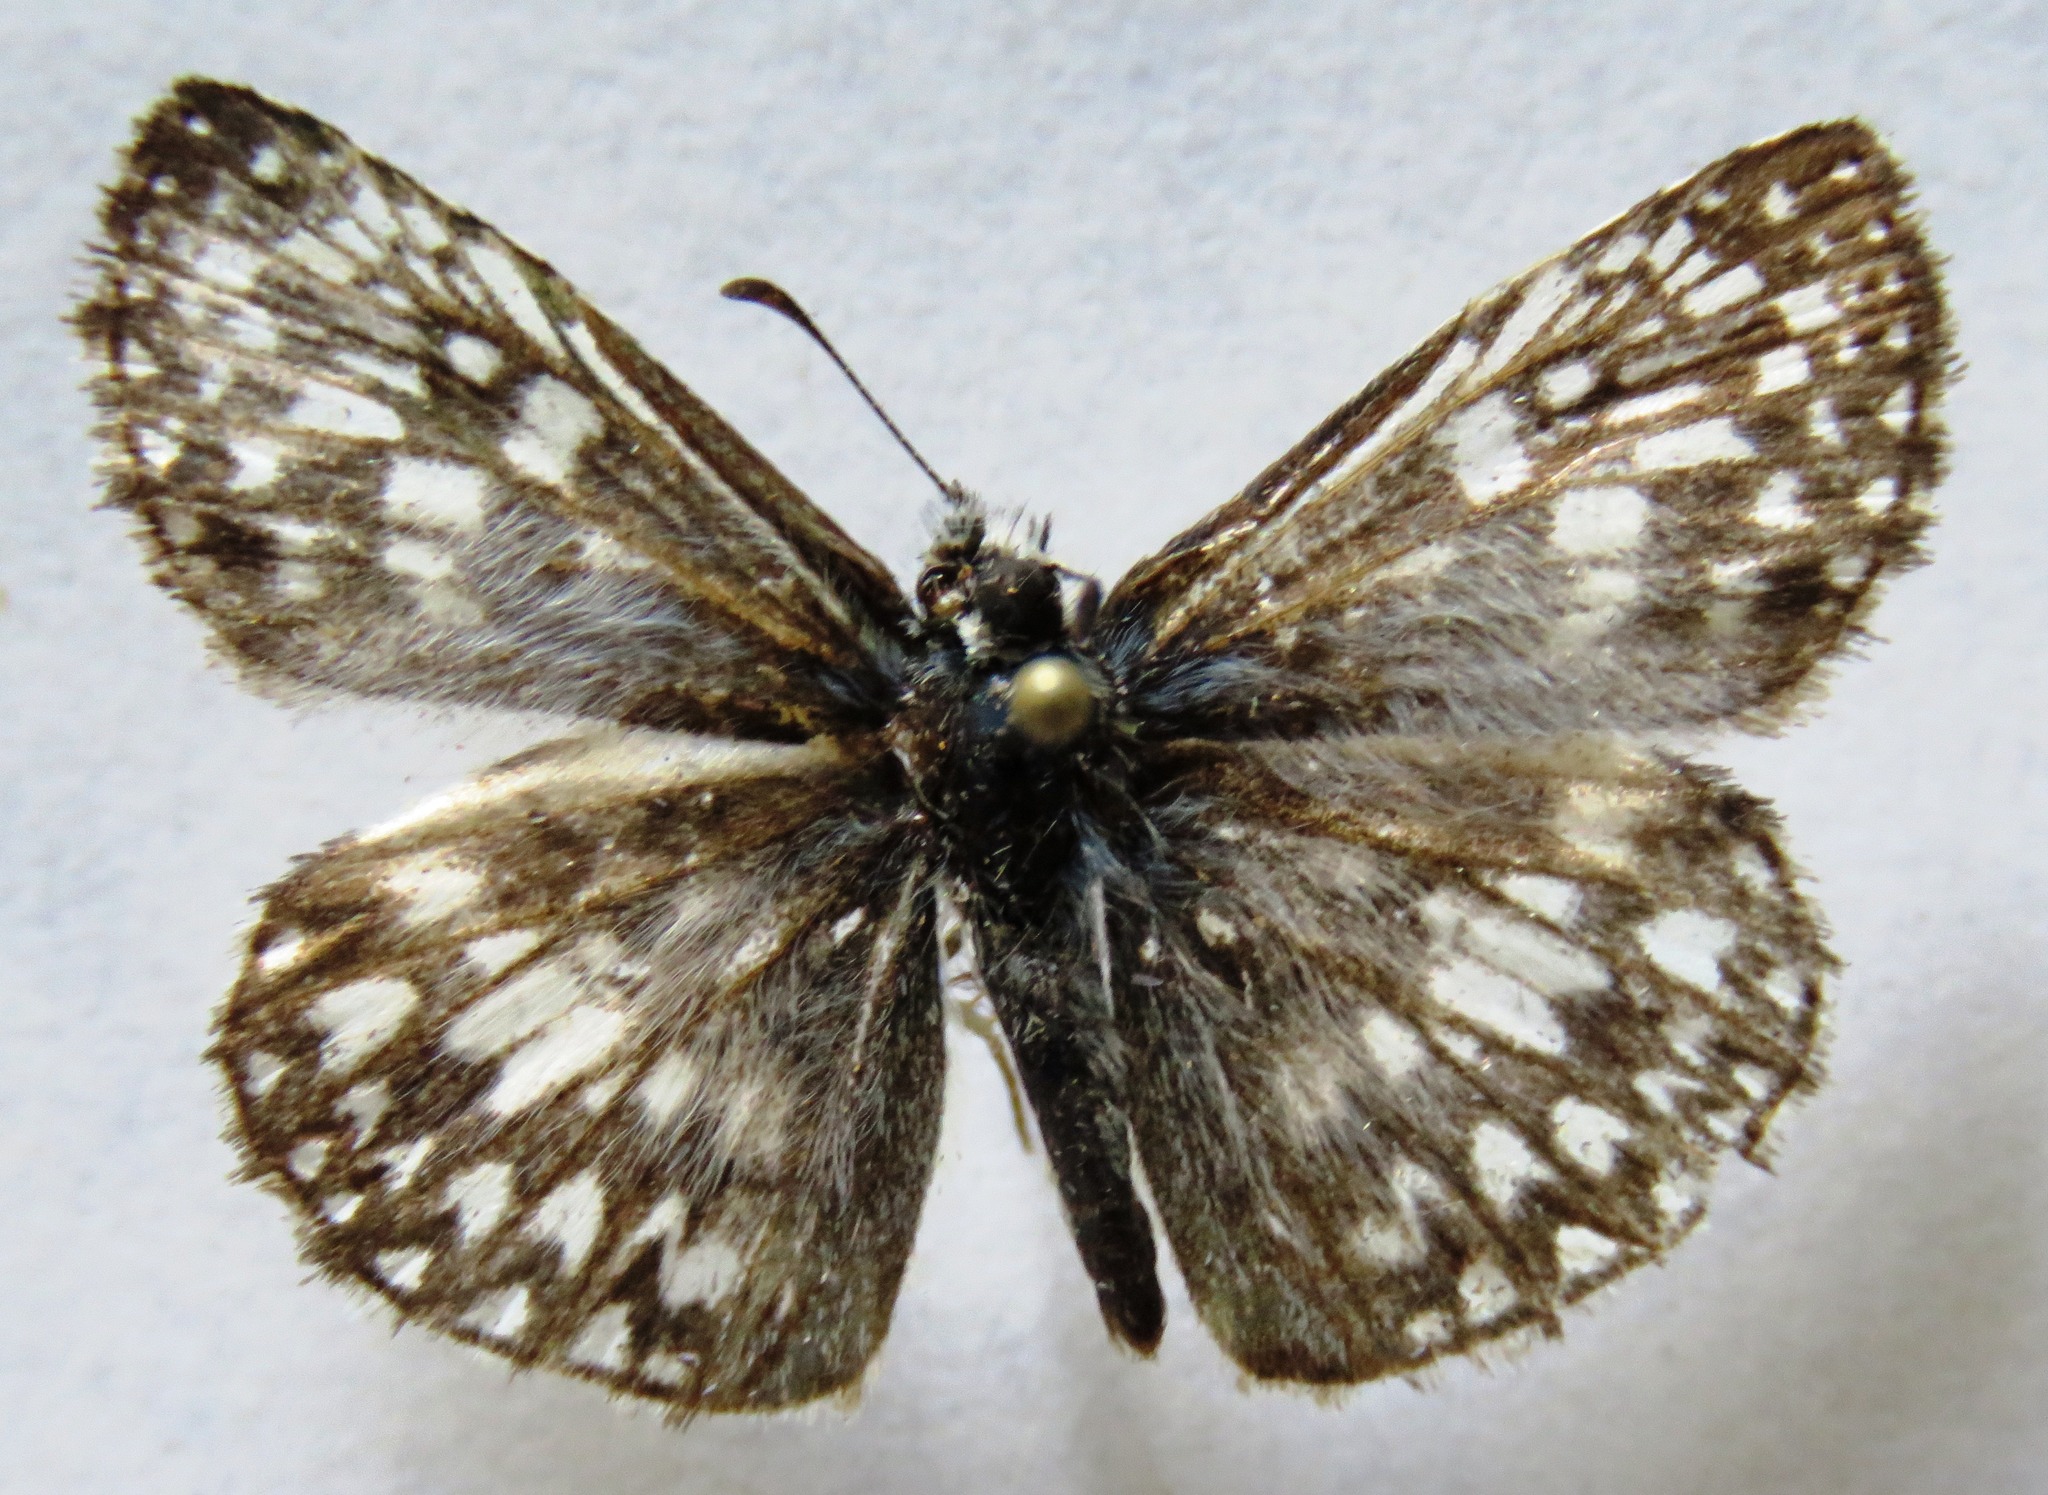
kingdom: Animalia
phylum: Arthropoda
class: Insecta
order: Lepidoptera
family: Hesperiidae
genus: Pyrgus
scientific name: Pyrgus oileus
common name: Tropical checkered-skipper
